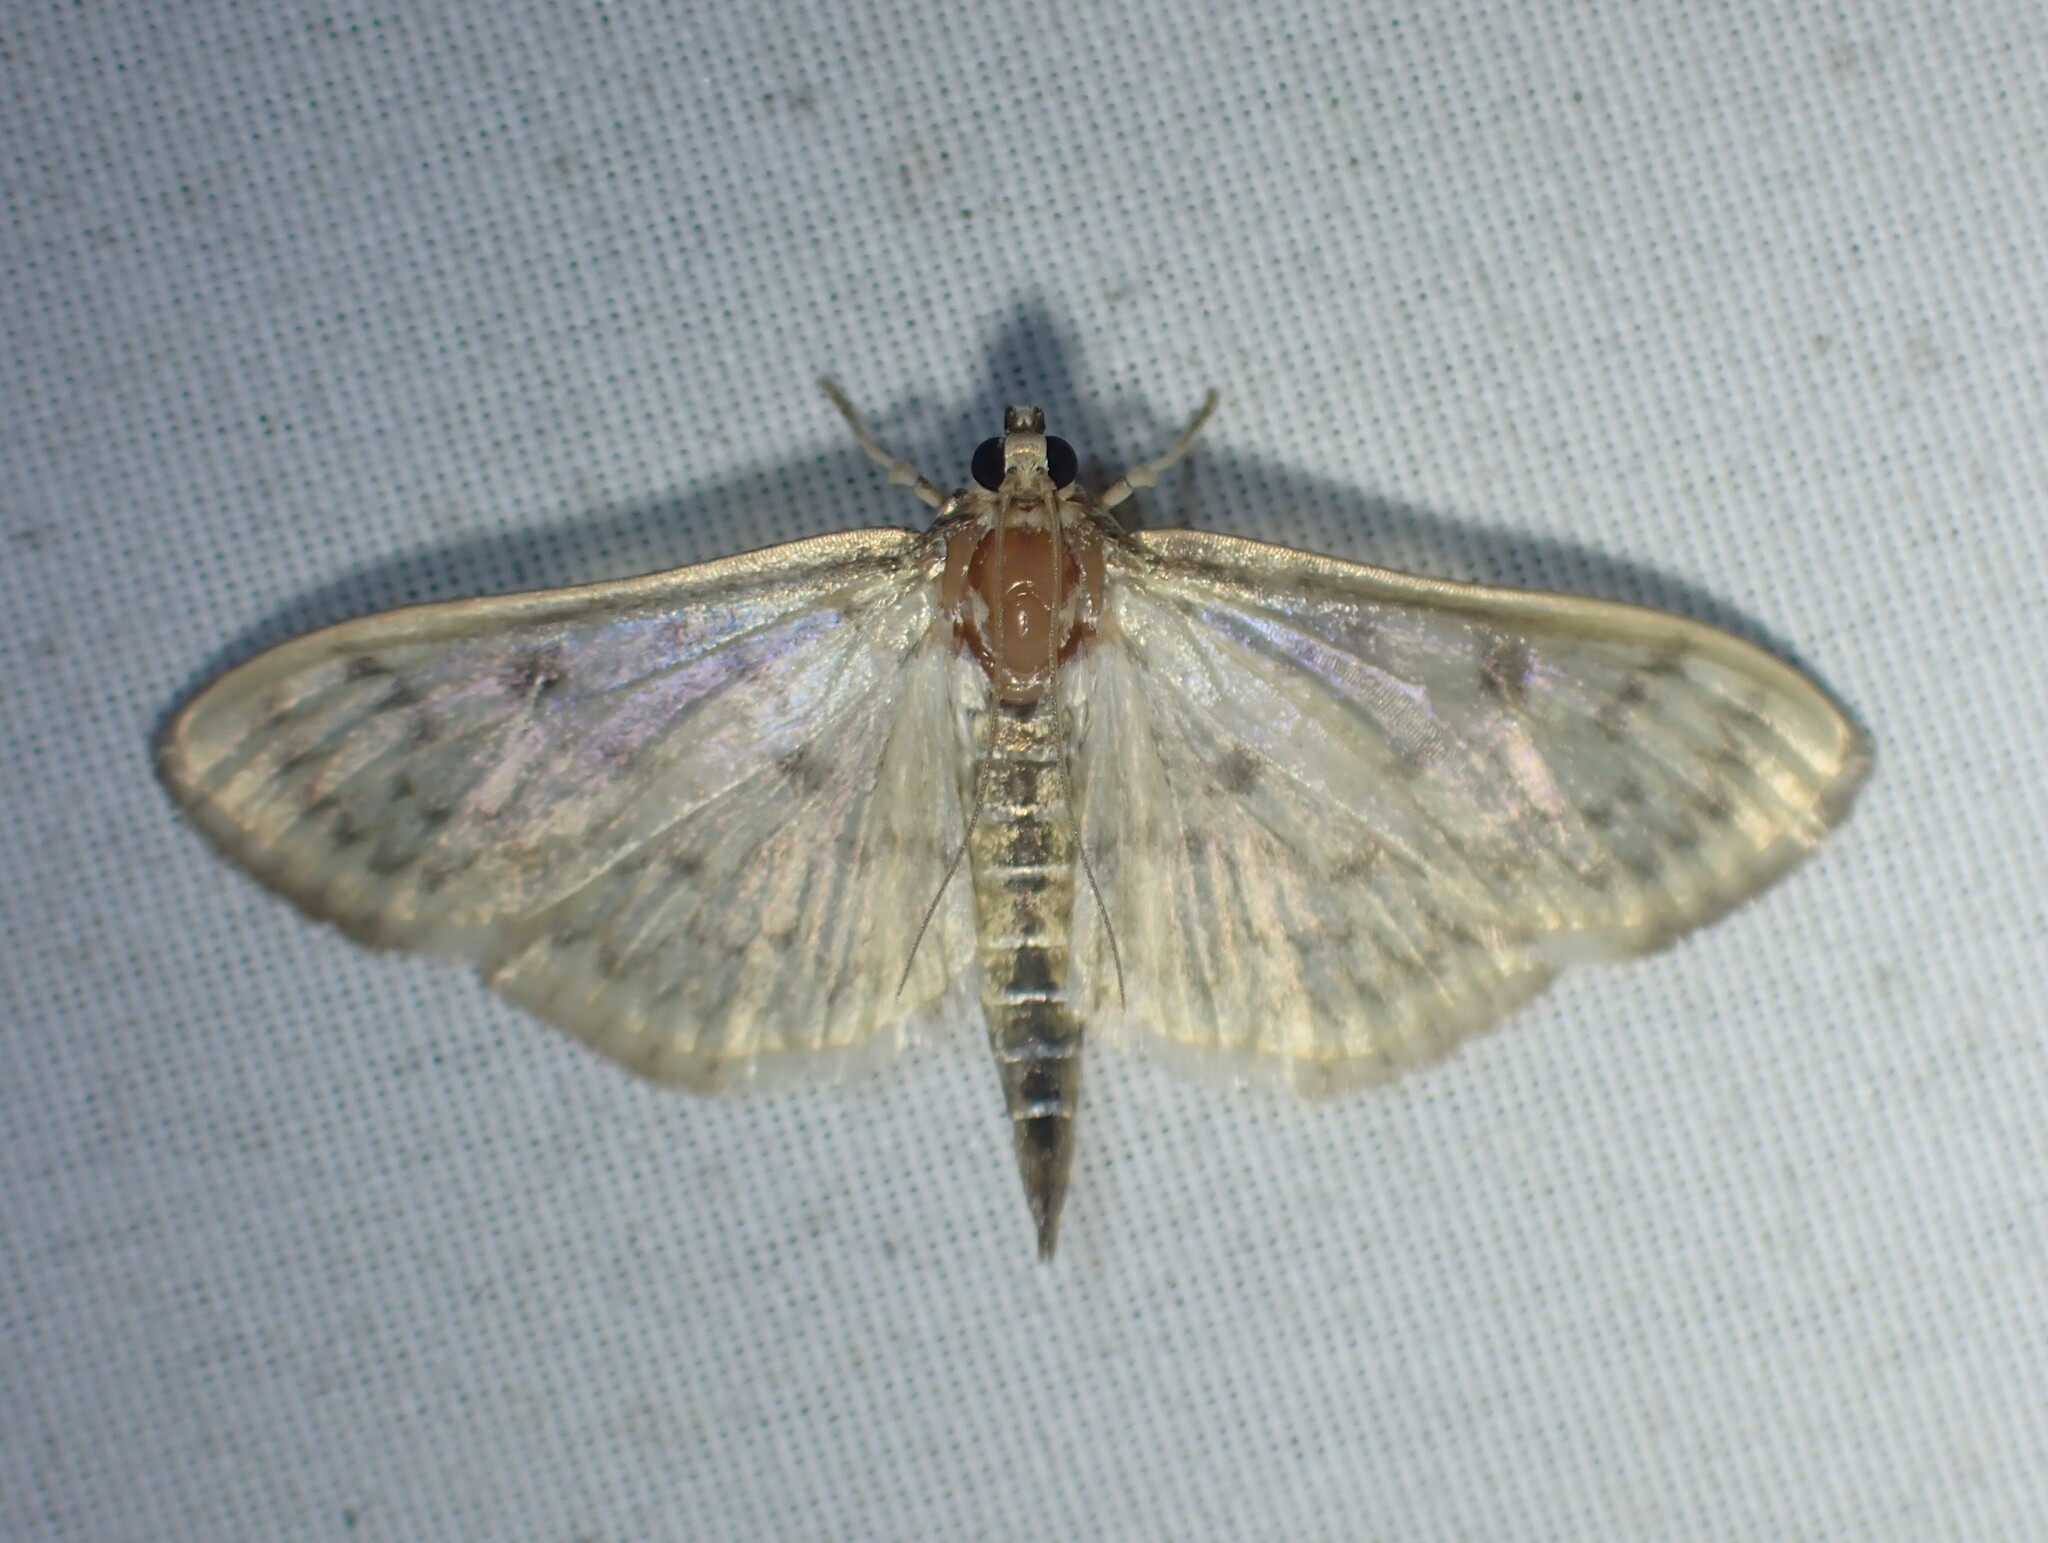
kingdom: Animalia
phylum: Arthropoda
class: Insecta
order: Lepidoptera
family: Crambidae
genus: Herpetogramma
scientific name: Herpetogramma aquilonalis
